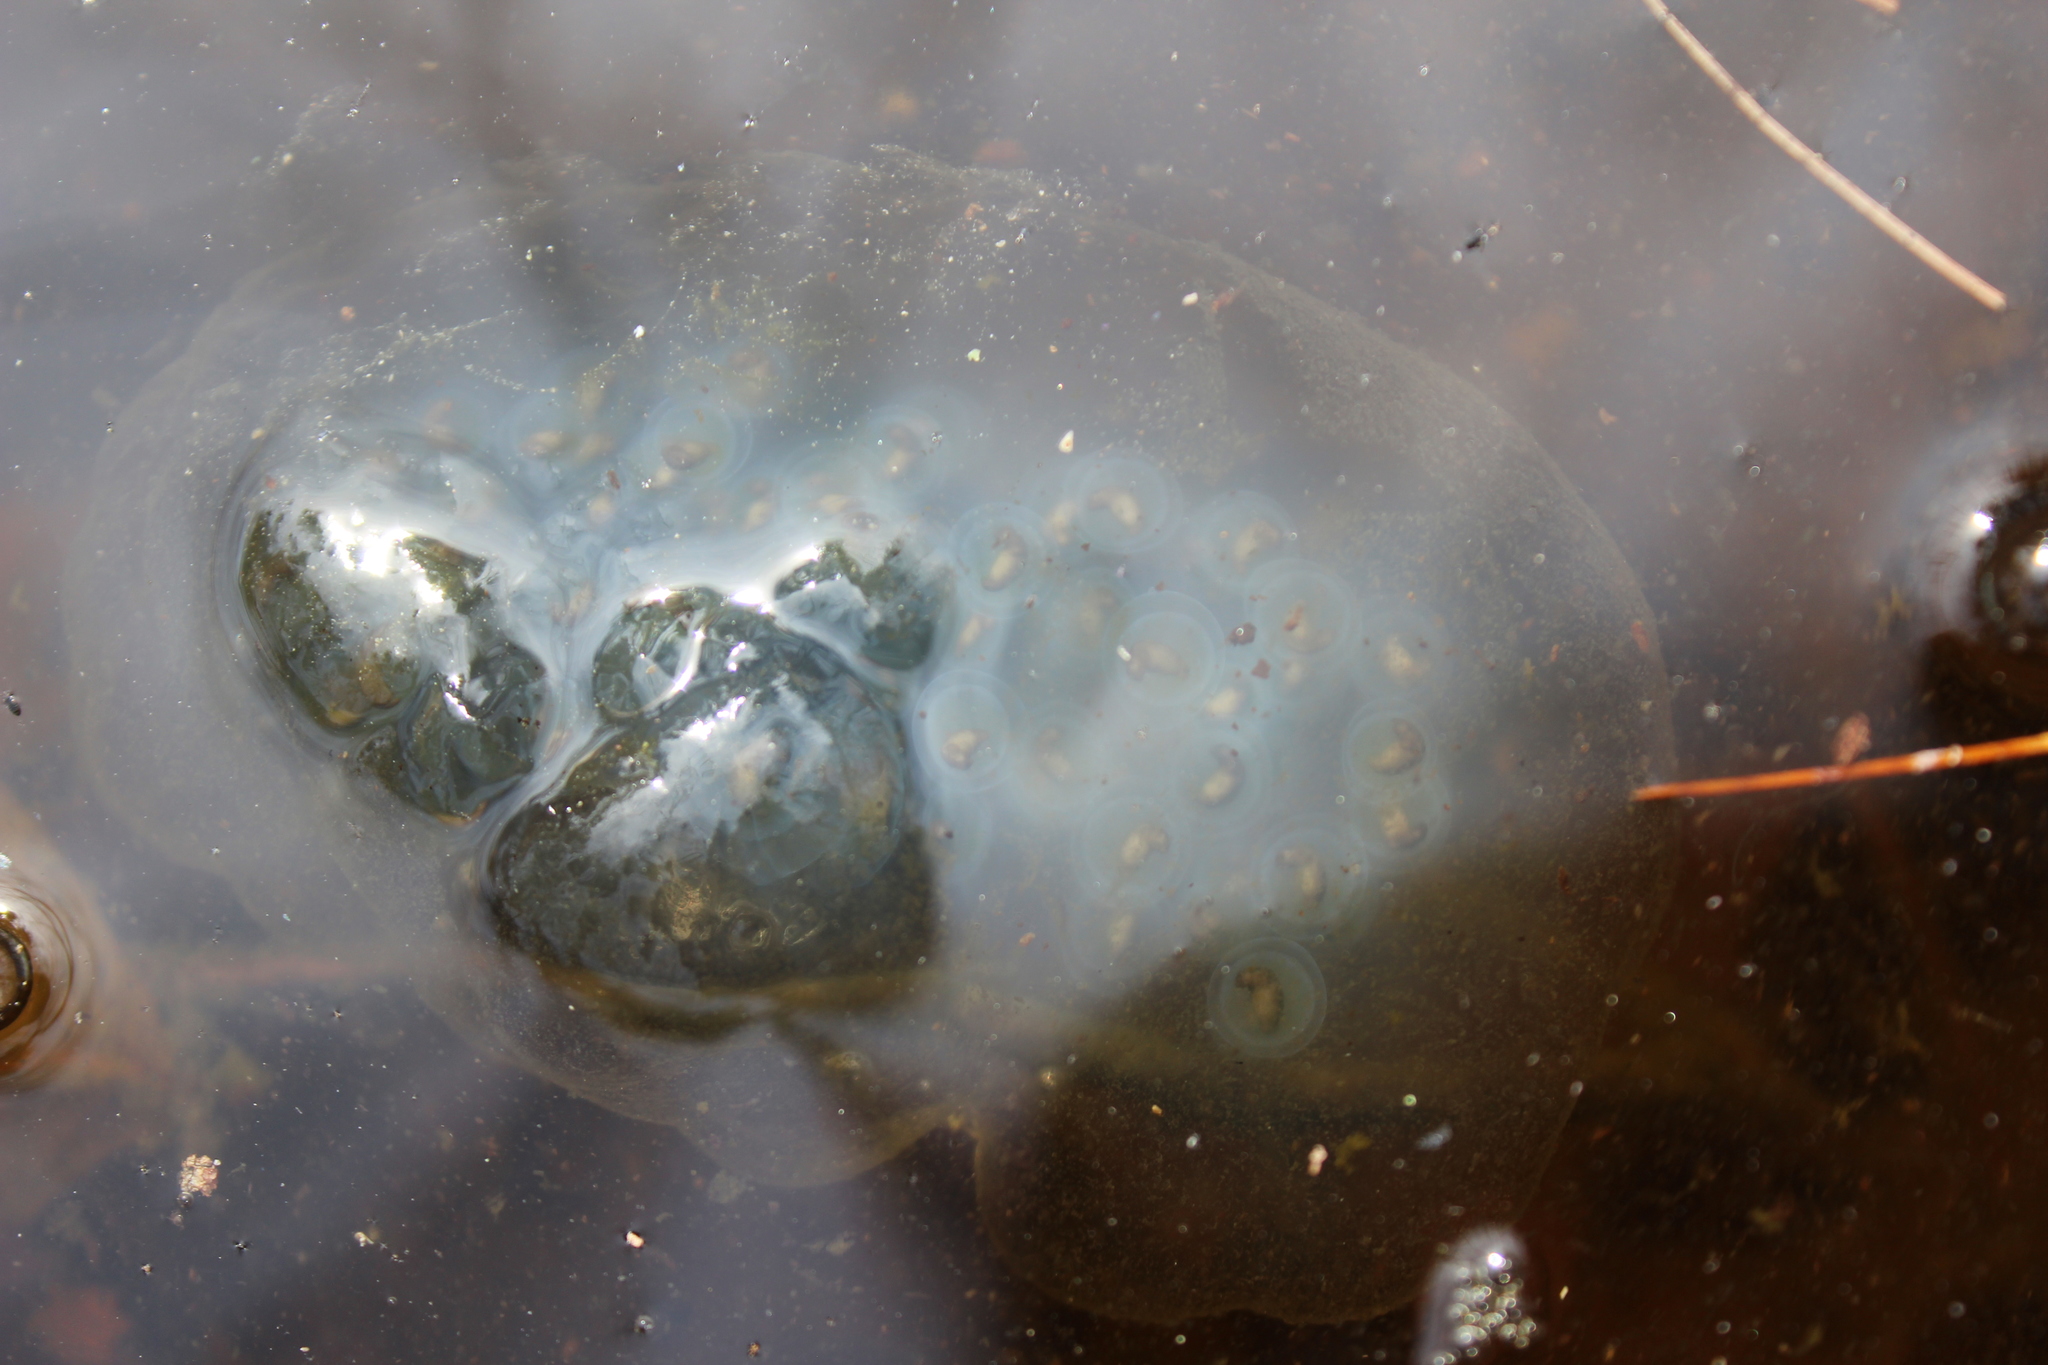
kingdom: Animalia
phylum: Chordata
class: Amphibia
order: Caudata
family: Ambystomatidae
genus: Ambystoma
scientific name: Ambystoma maculatum
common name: Spotted salamander
